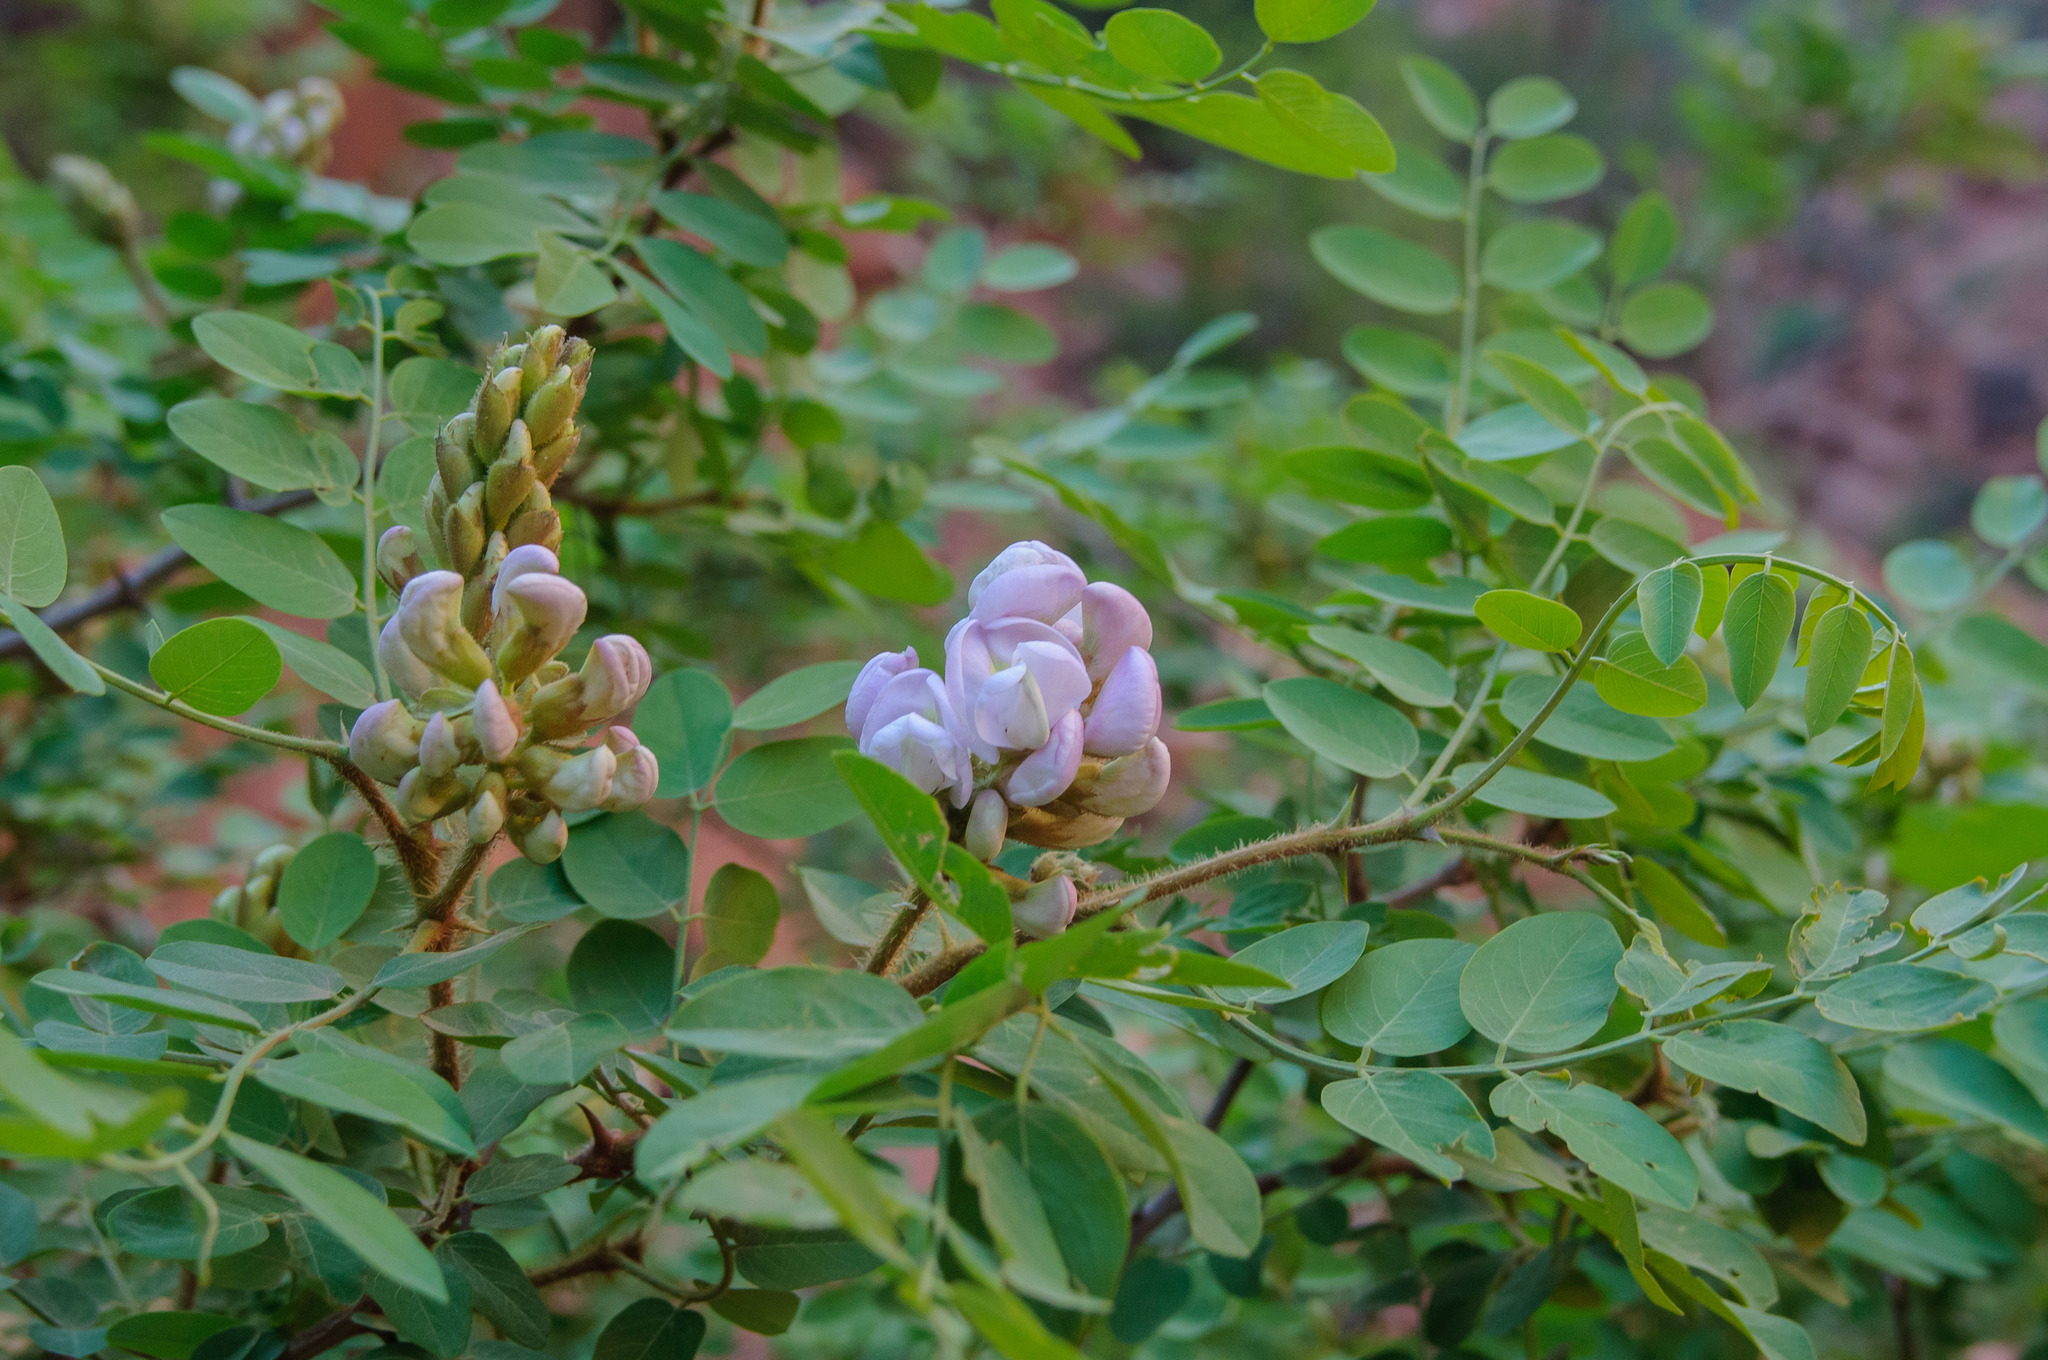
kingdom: Plantae
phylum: Tracheophyta
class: Magnoliopsida
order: Fabales
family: Fabaceae
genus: Robinia
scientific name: Robinia neomexicana
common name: New mexico locust
